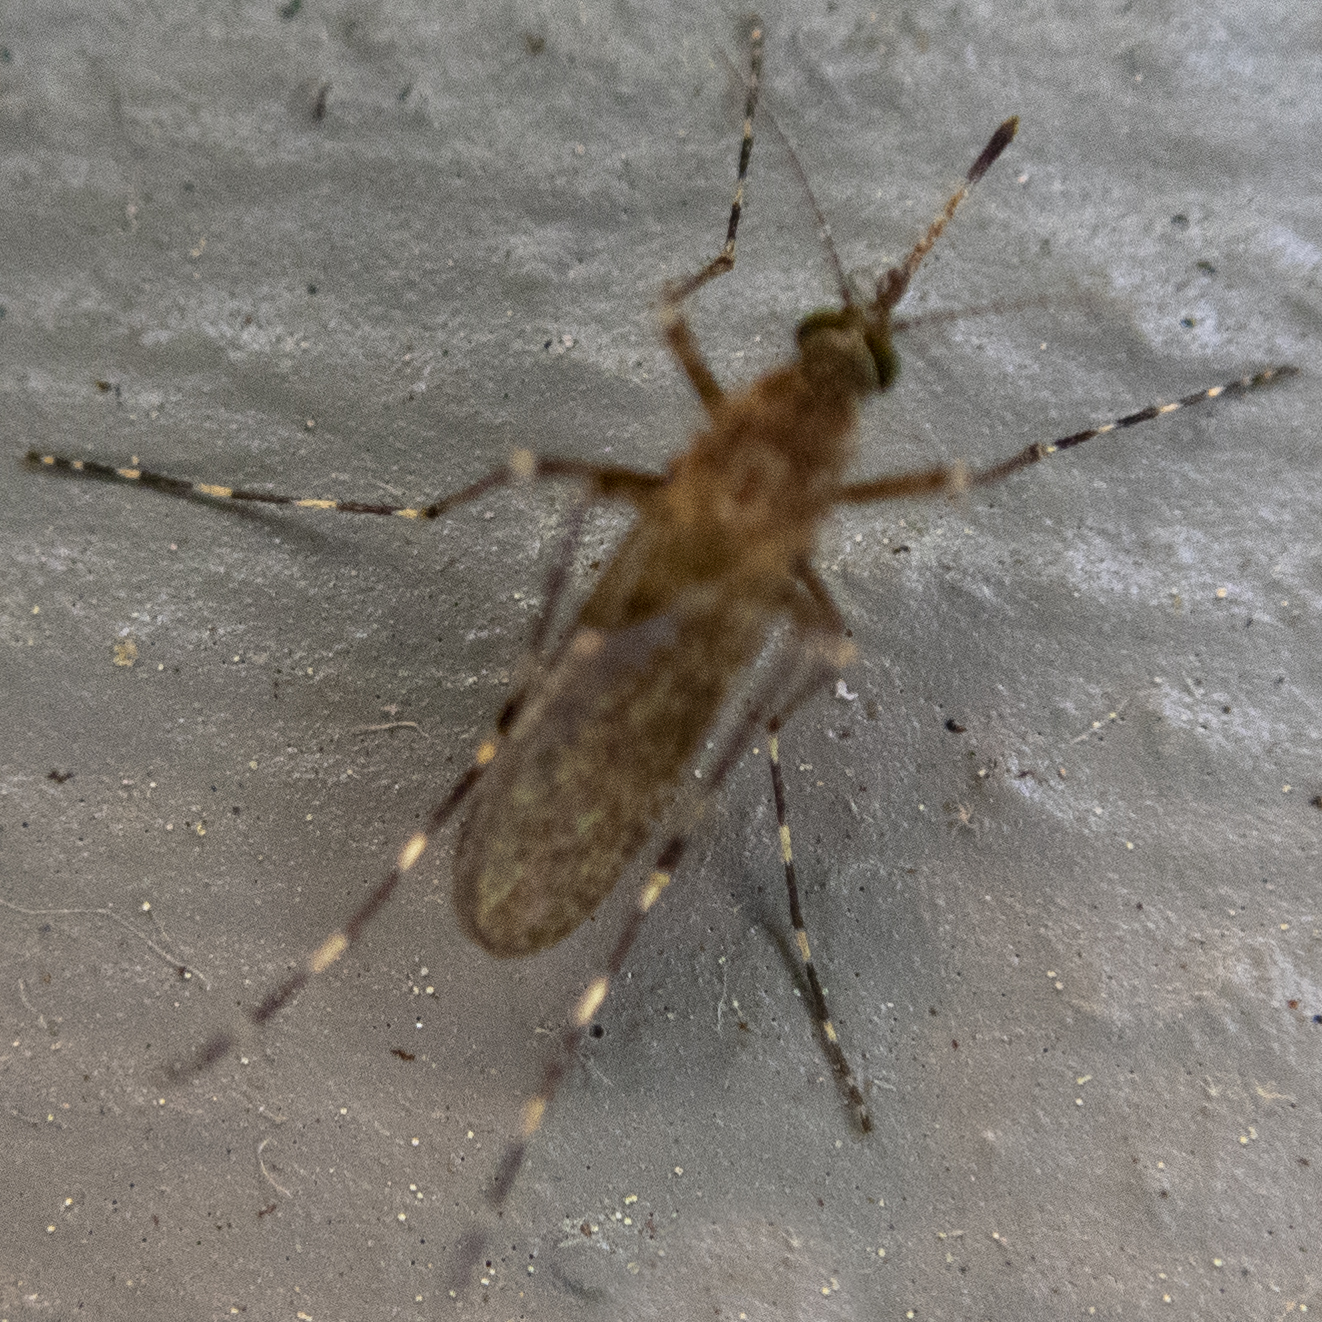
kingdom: Animalia
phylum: Arthropoda
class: Insecta
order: Diptera
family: Culicidae
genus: Coquillettidia
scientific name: Coquillettidia perturbans
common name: Cattail mosquito
